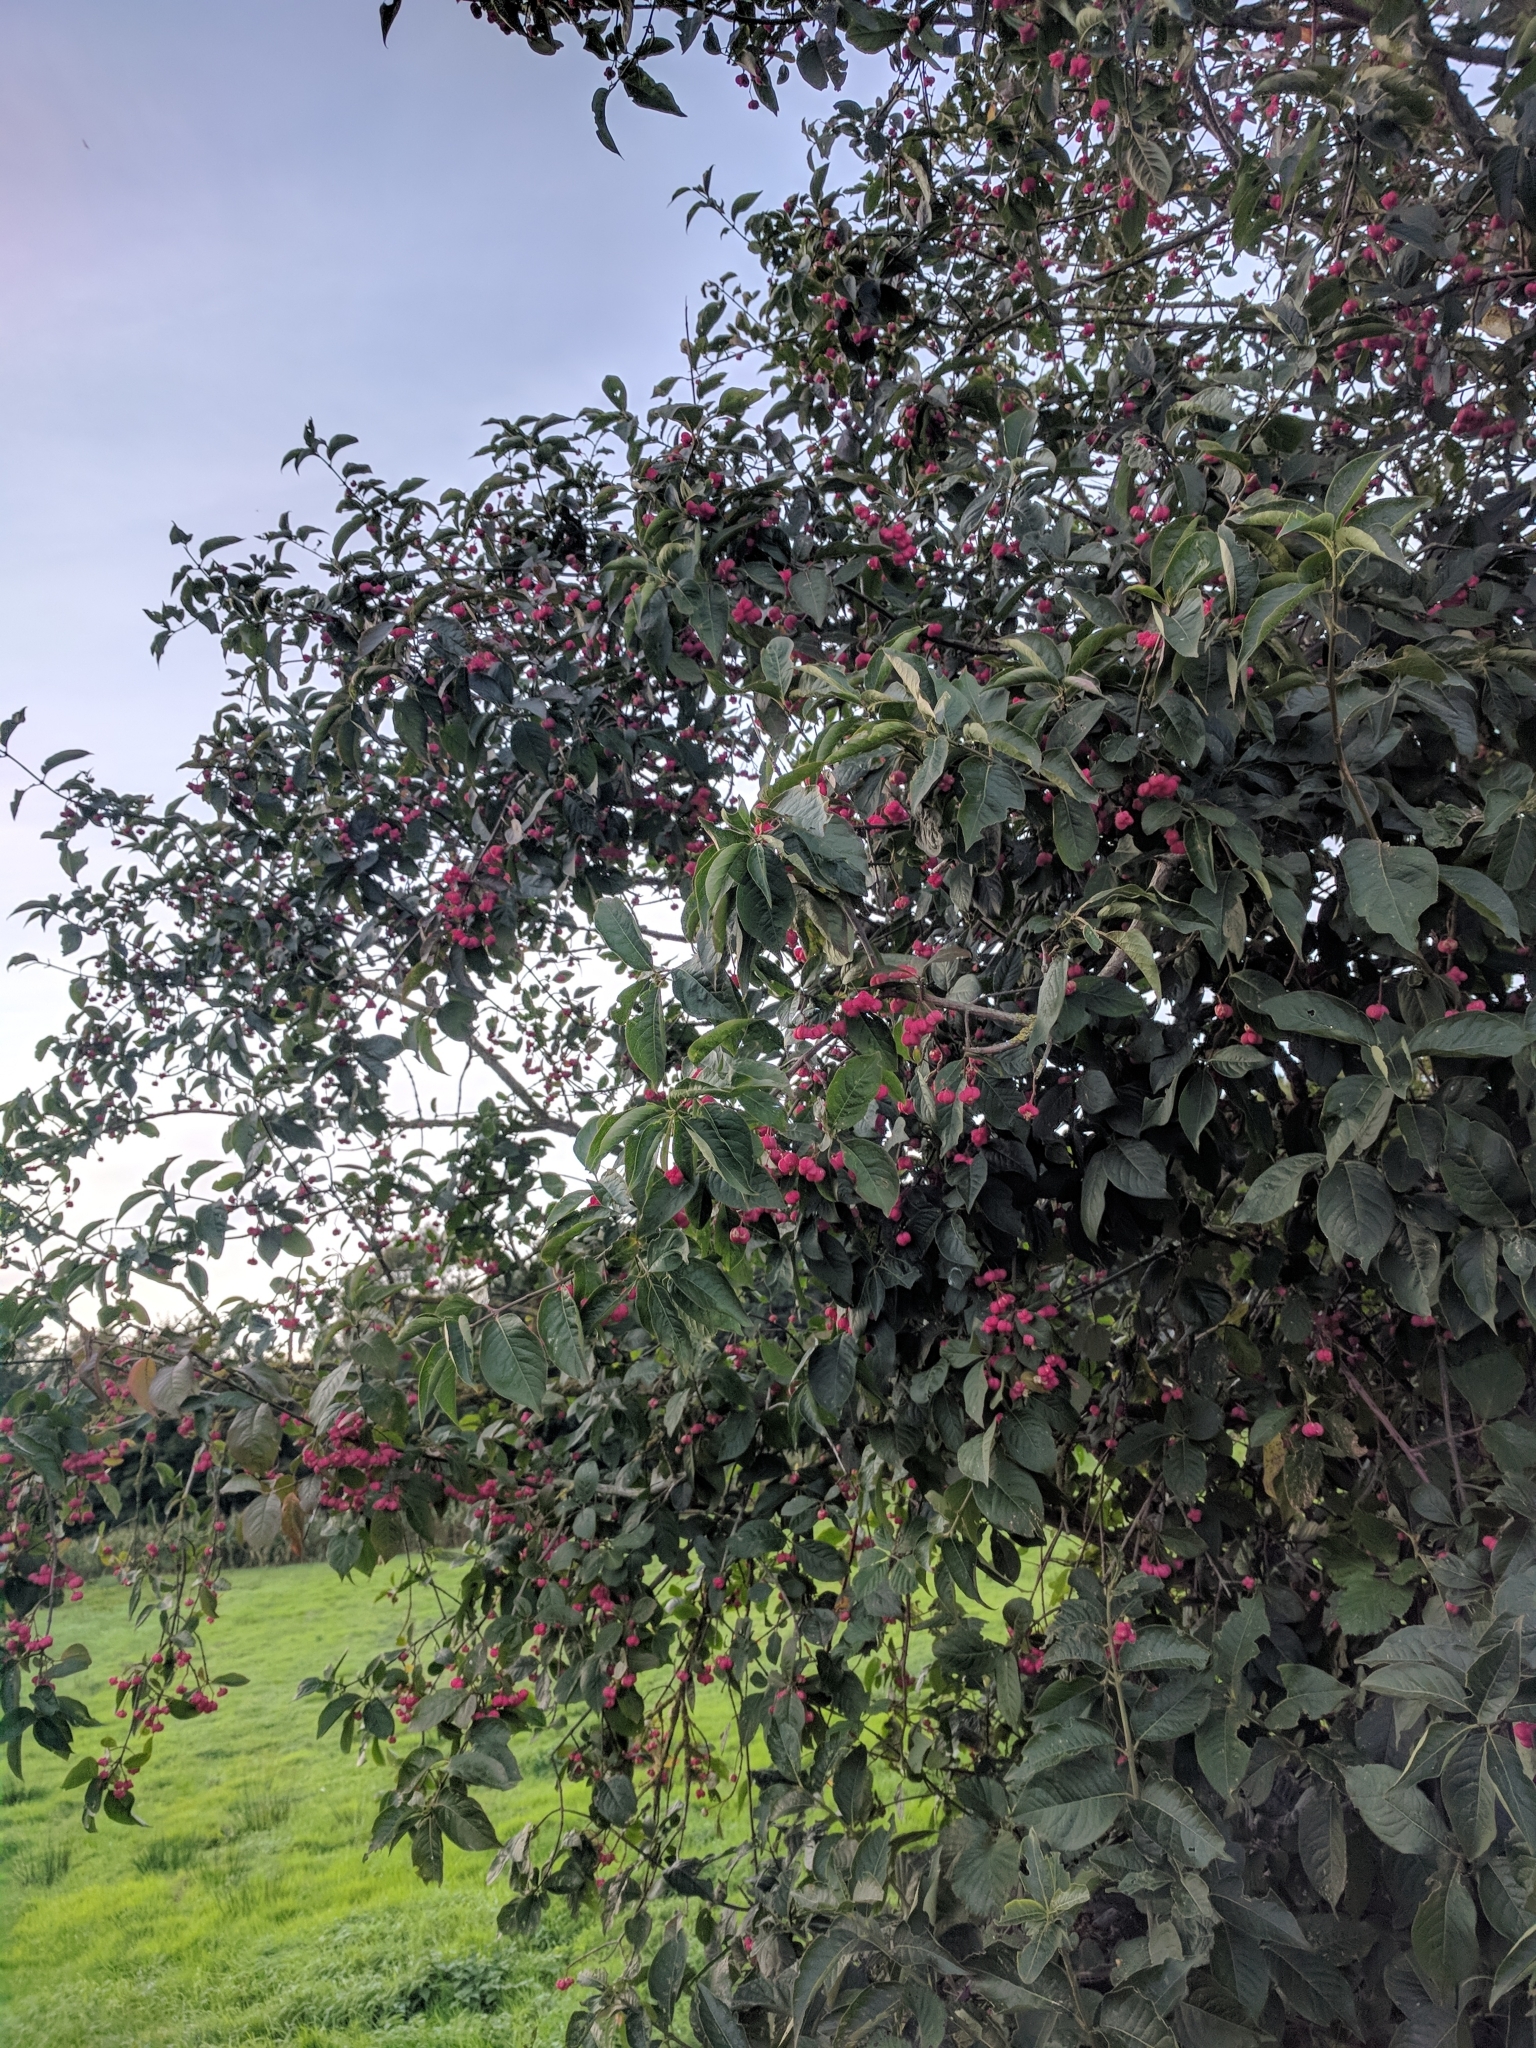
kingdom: Plantae
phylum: Tracheophyta
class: Magnoliopsida
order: Celastrales
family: Celastraceae
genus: Euonymus
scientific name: Euonymus europaeus
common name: Spindle
